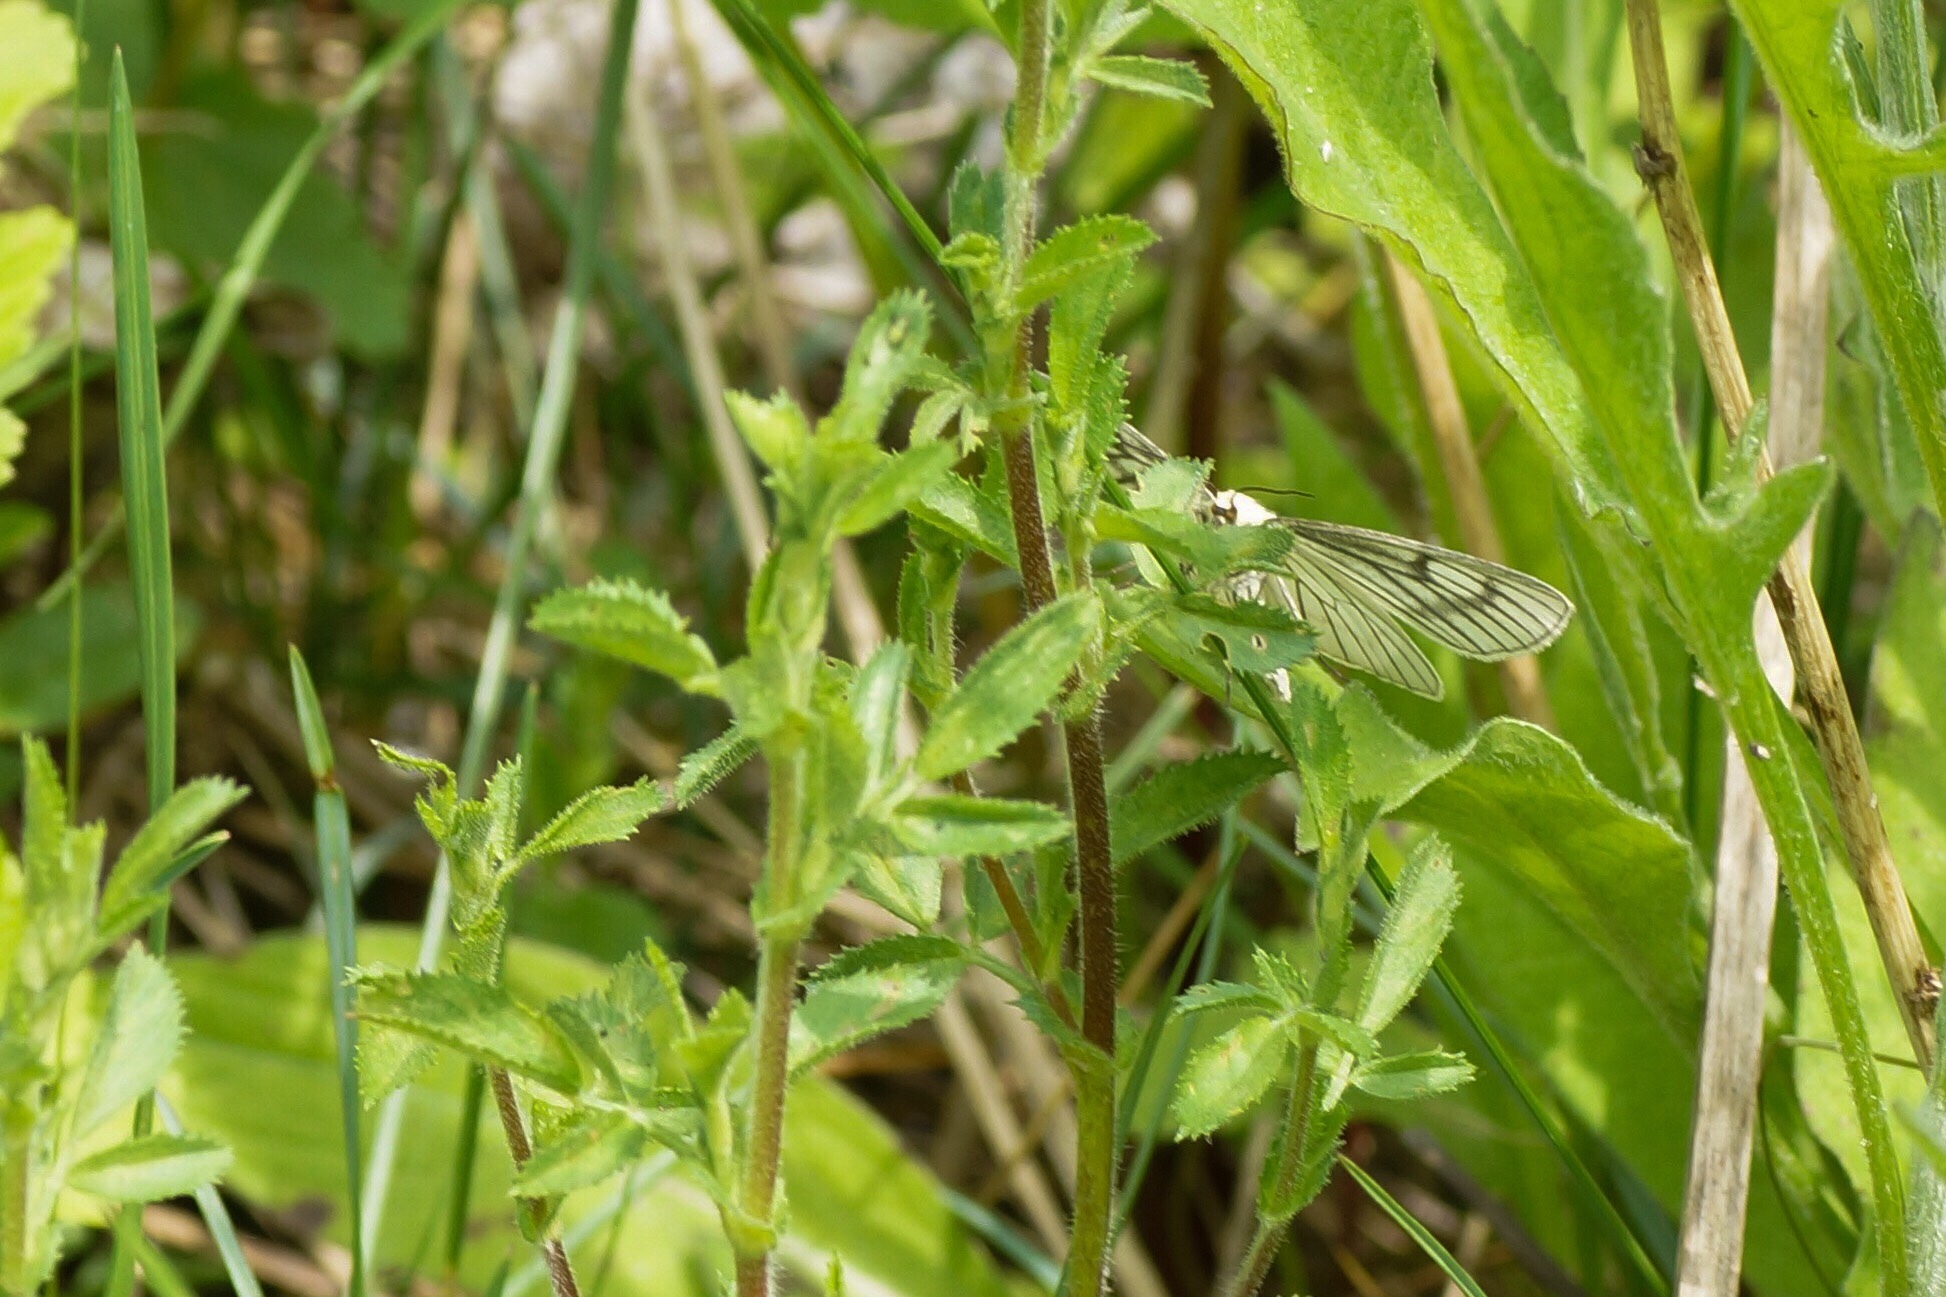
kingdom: Animalia
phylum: Arthropoda
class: Insecta
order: Lepidoptera
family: Geometridae
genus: Siona
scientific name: Siona lineata
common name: Black-veined moth
